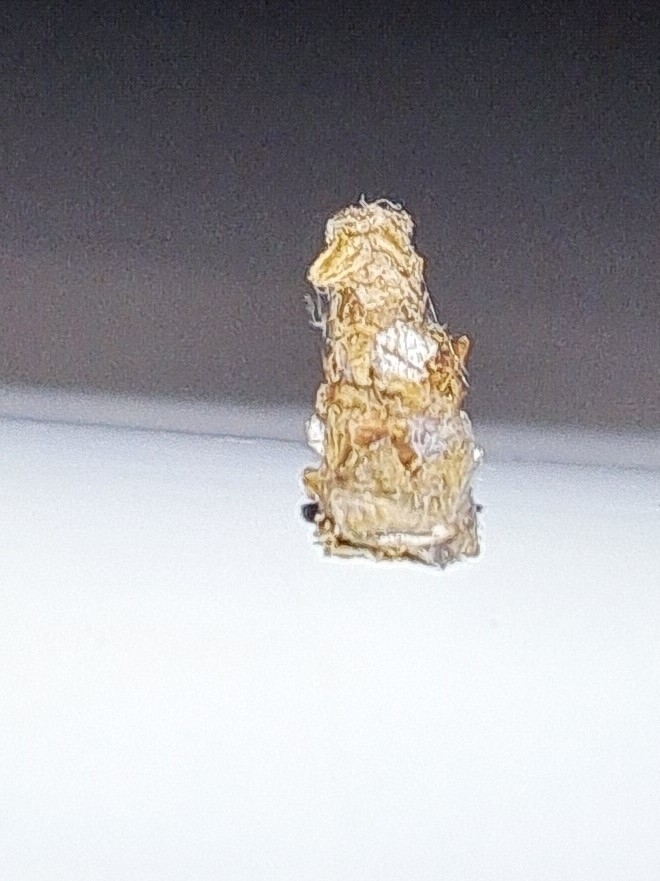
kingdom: Animalia
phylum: Arthropoda
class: Insecta
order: Lepidoptera
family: Psychidae
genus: Lepidoscia
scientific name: Lepidoscia lainodes
